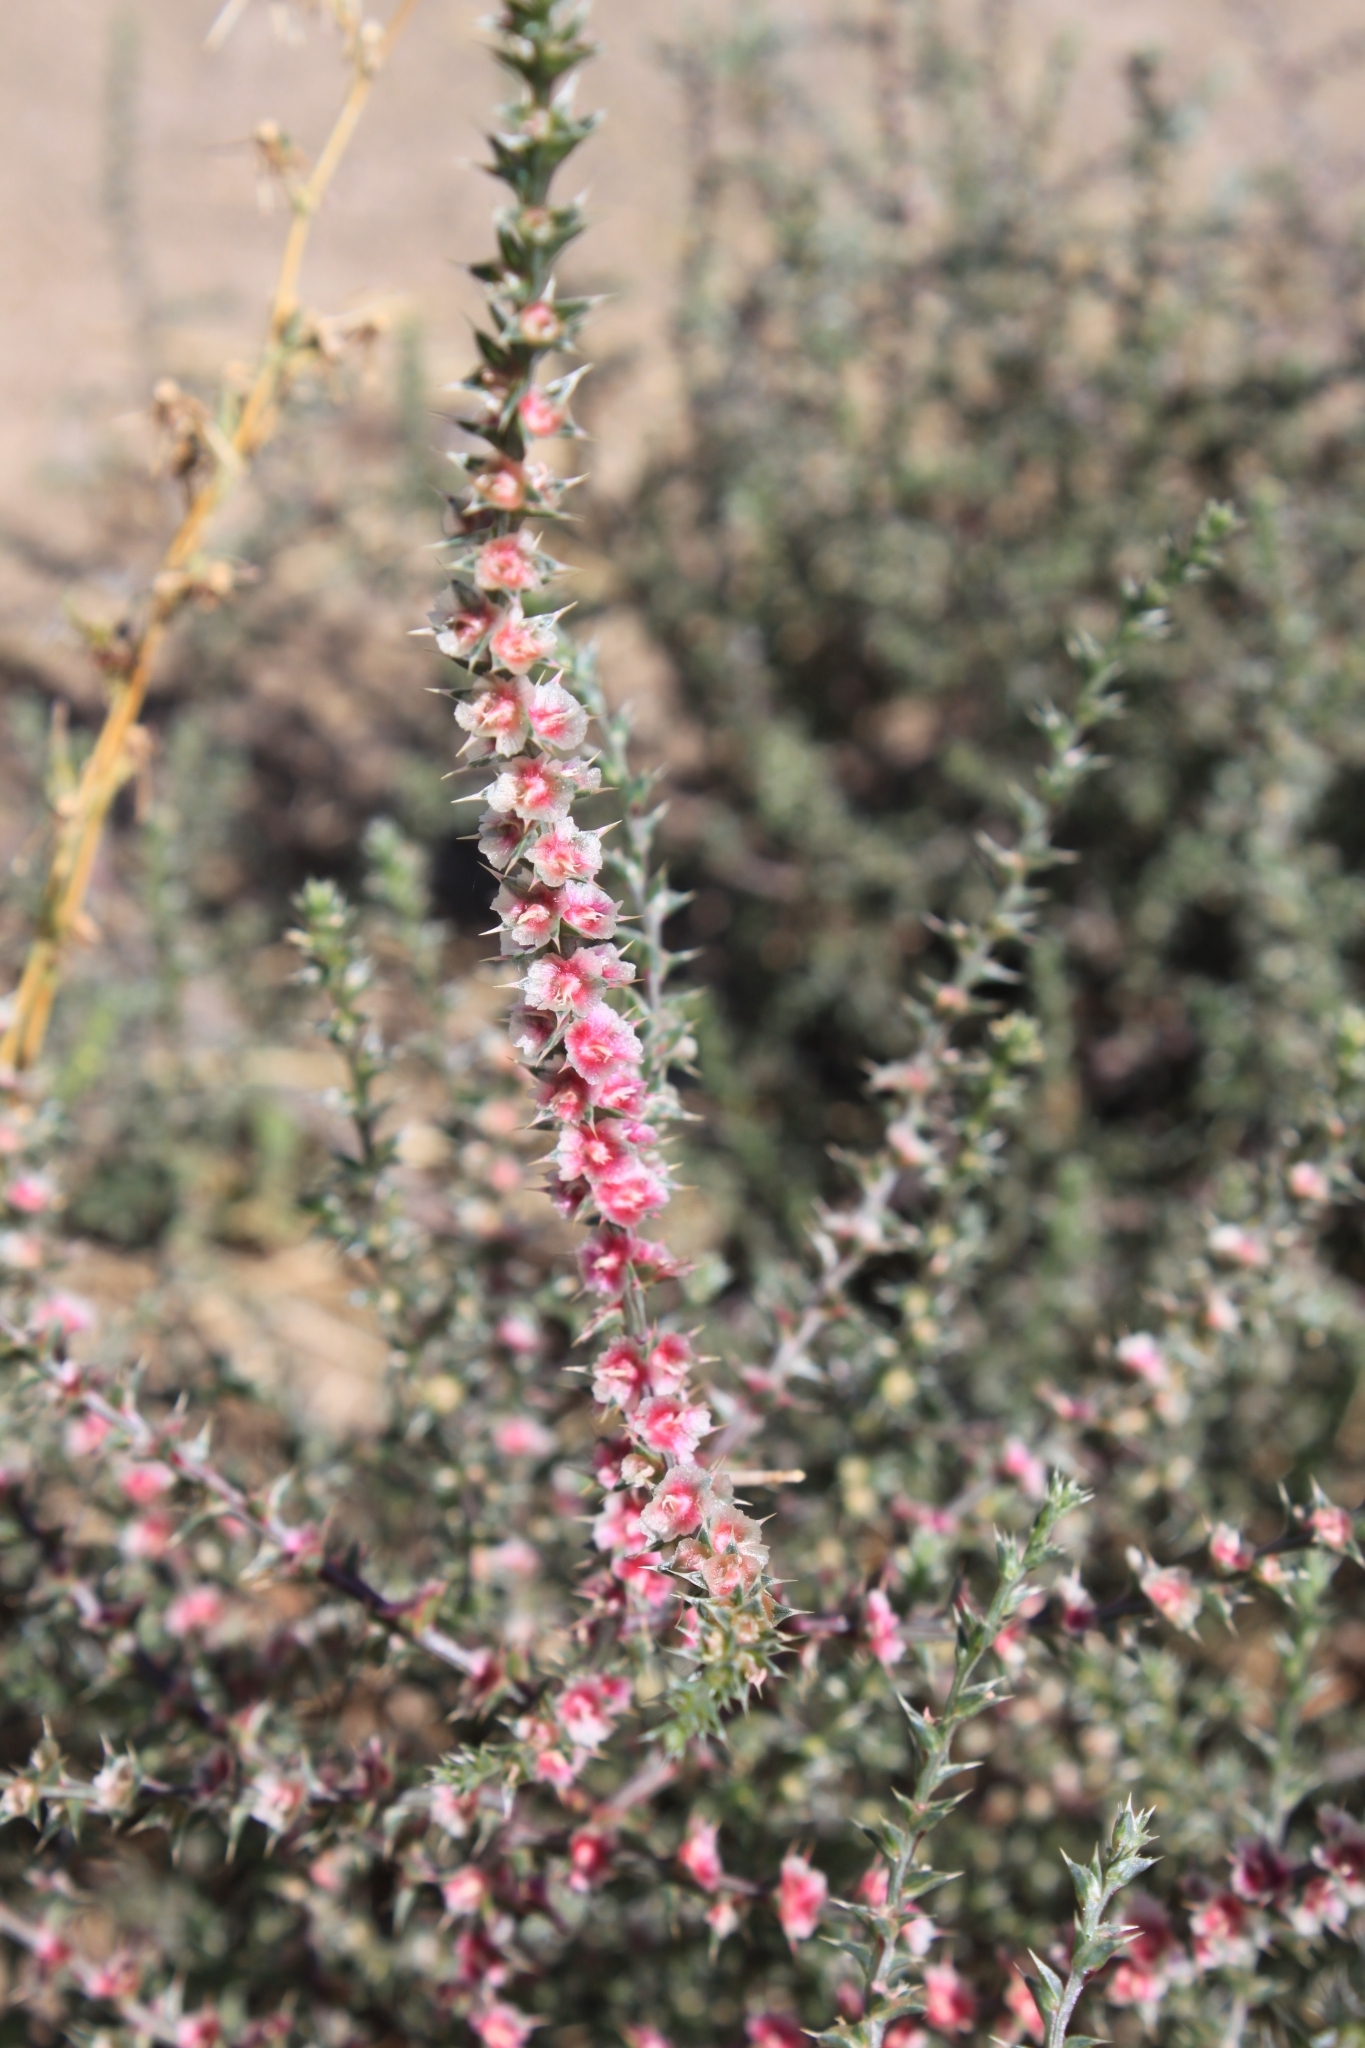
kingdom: Plantae
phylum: Tracheophyta
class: Magnoliopsida
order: Caryophyllales
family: Amaranthaceae
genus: Salsola
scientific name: Salsola tragus
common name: Prickly russian thistle
